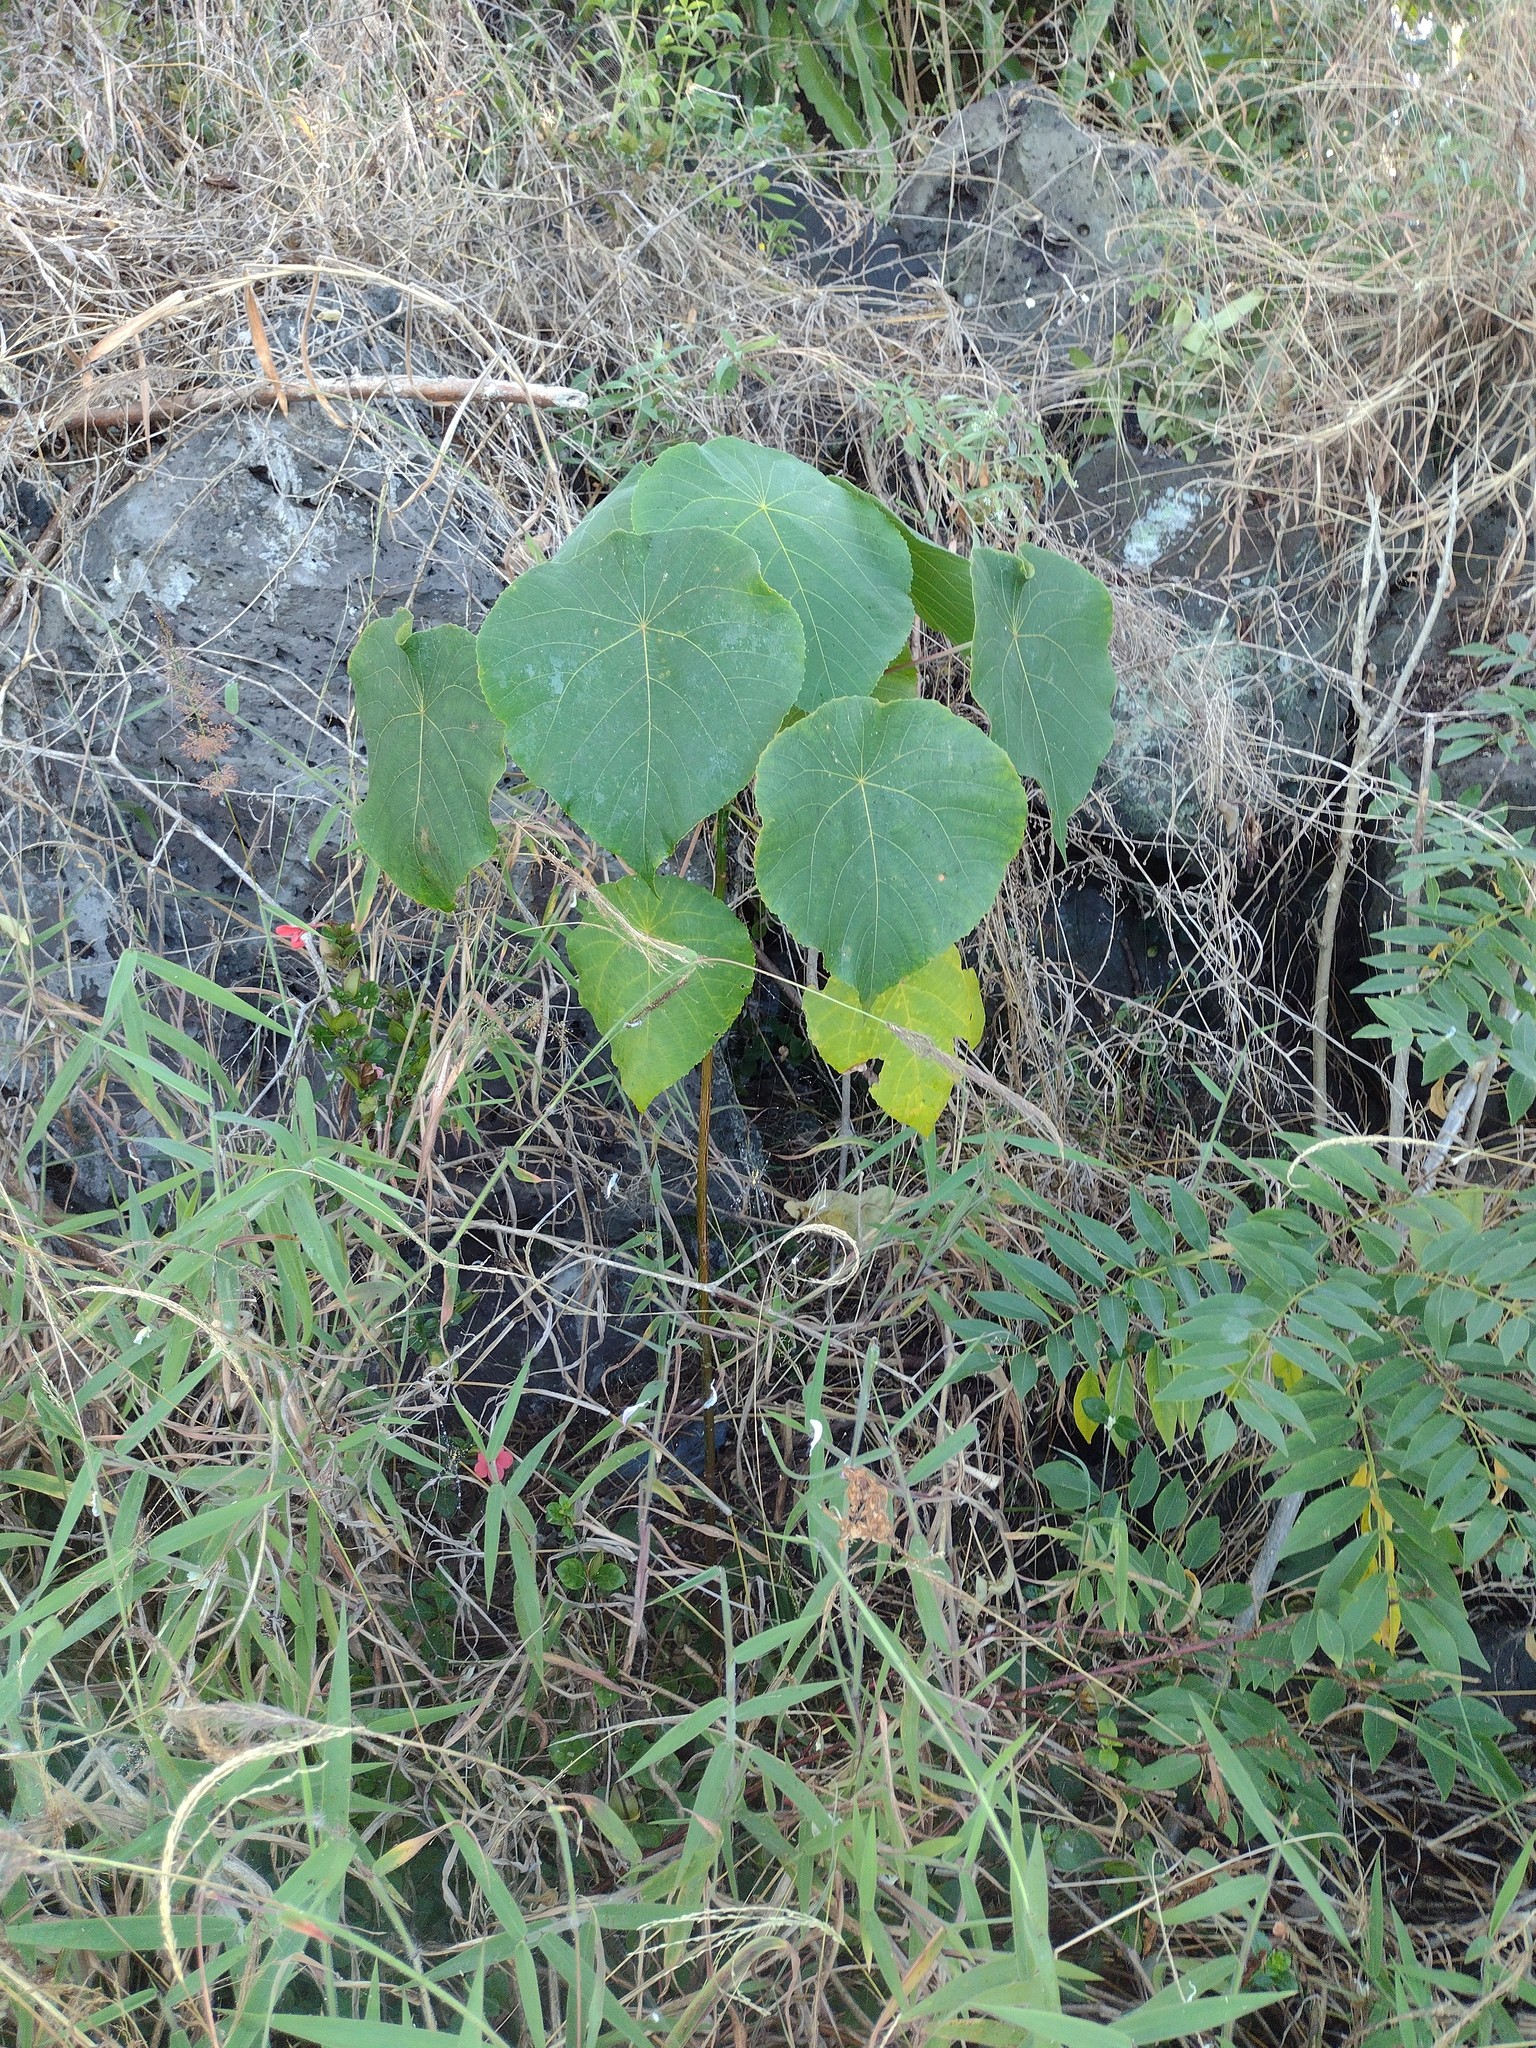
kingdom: Plantae
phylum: Tracheophyta
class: Magnoliopsida
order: Malpighiales
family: Euphorbiaceae
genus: Macaranga
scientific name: Macaranga tanarius
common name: Parasol leaf tree
